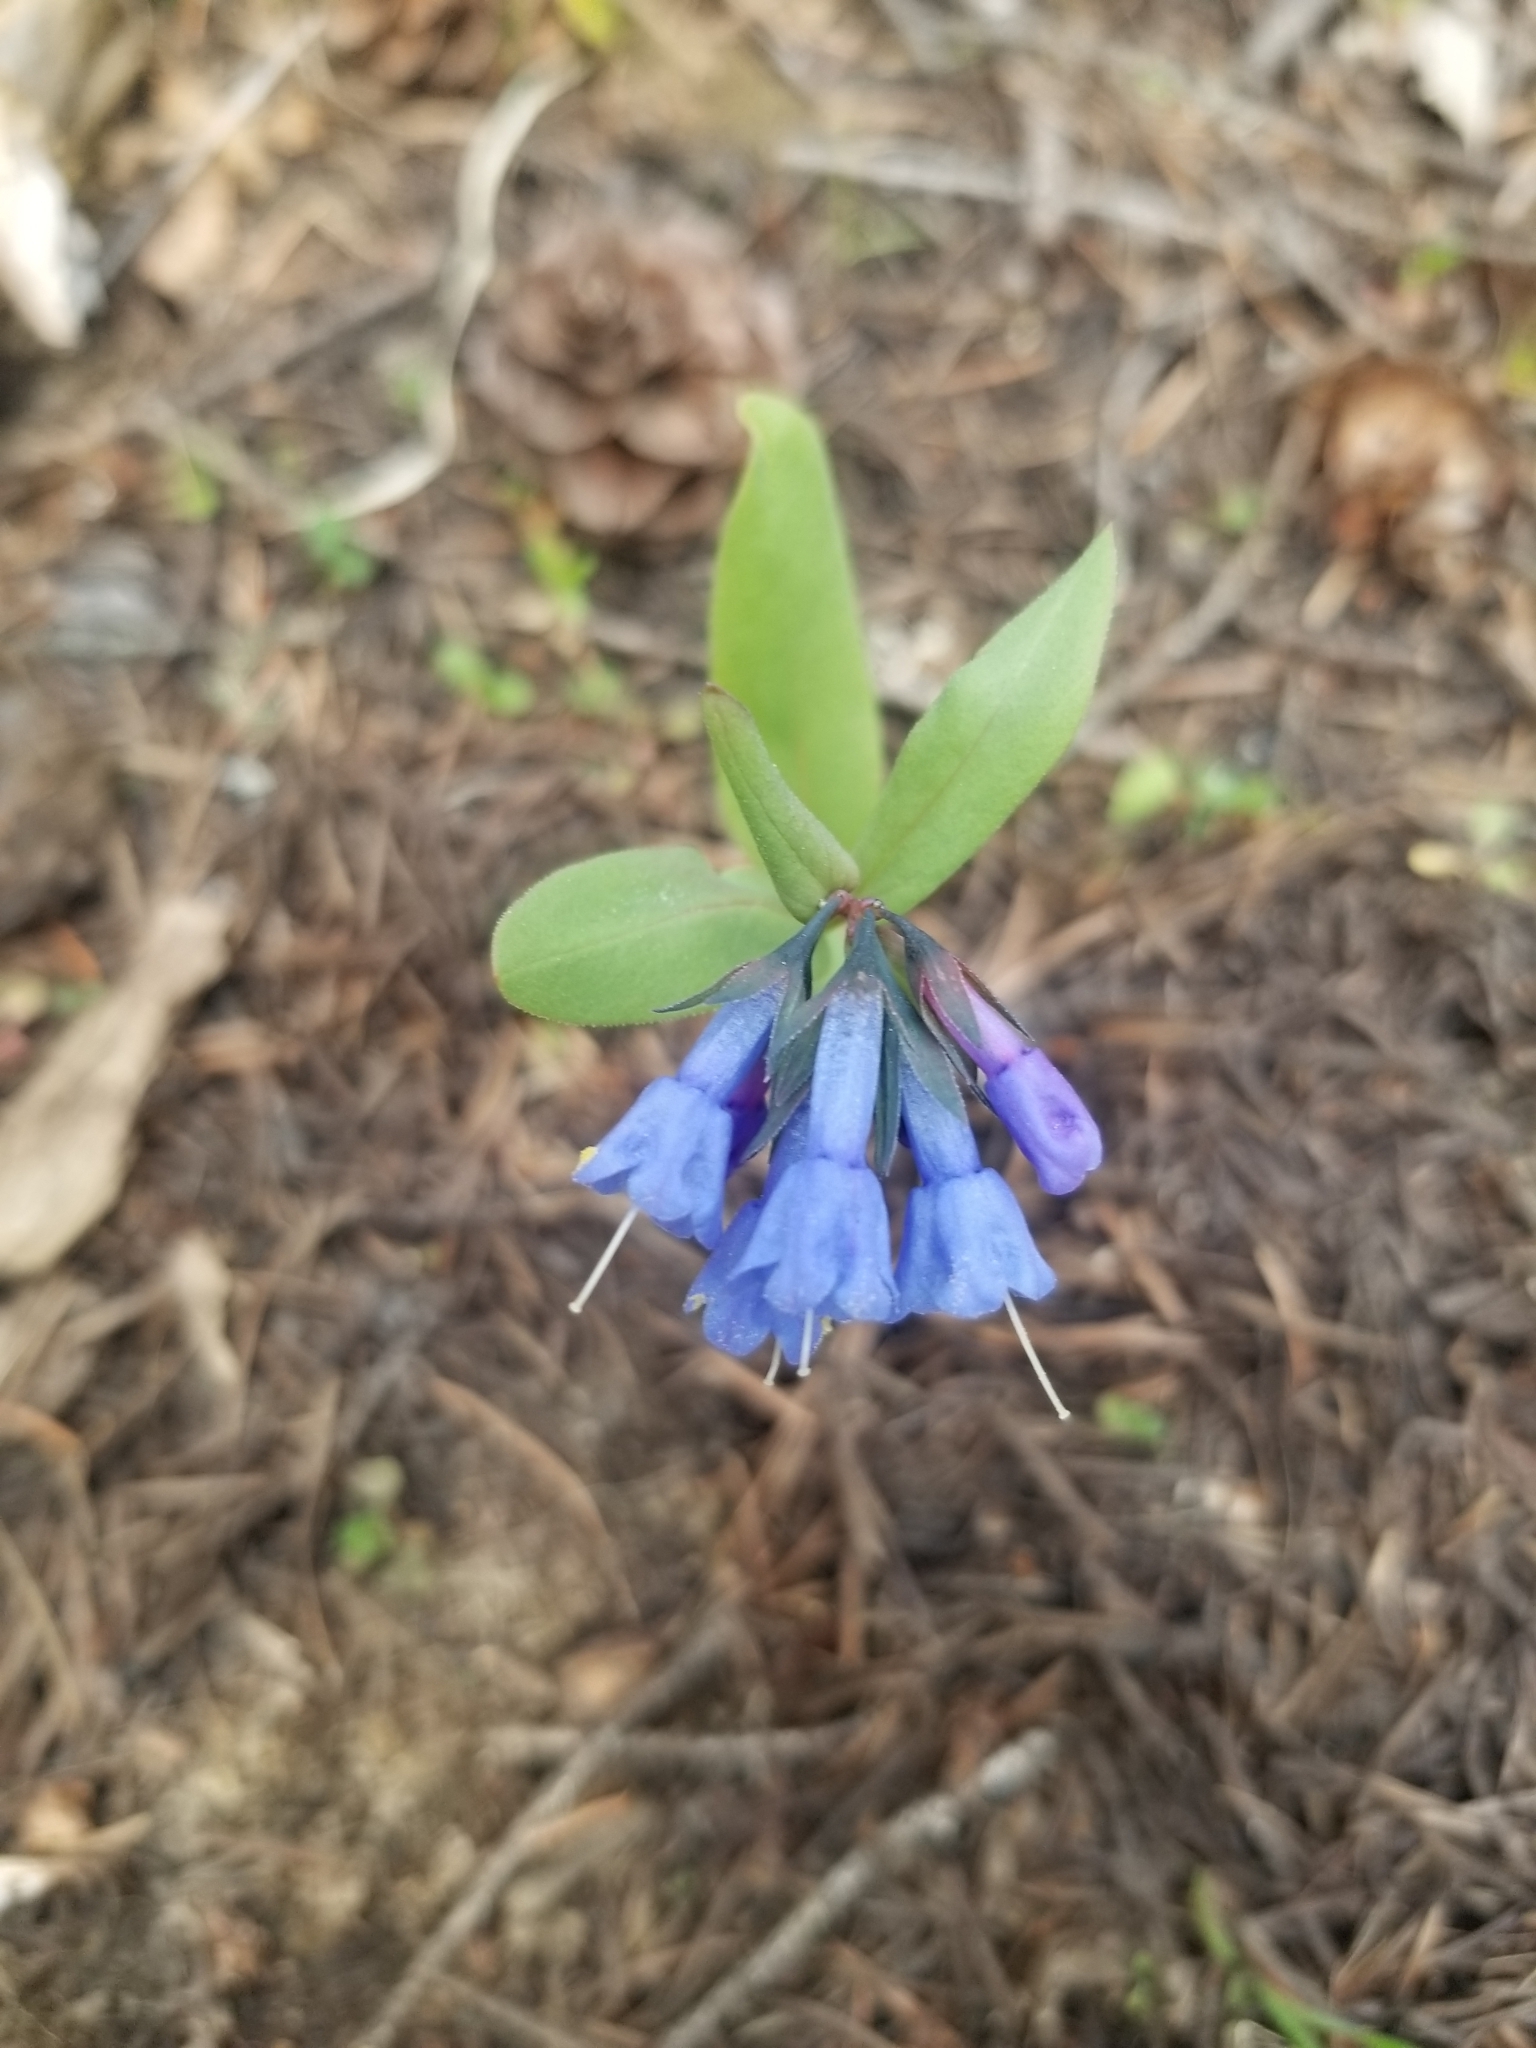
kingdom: Plantae
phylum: Tracheophyta
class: Magnoliopsida
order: Boraginales
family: Boraginaceae
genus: Mertensia
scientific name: Mertensia longiflora
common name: Large-flowered bluebells
